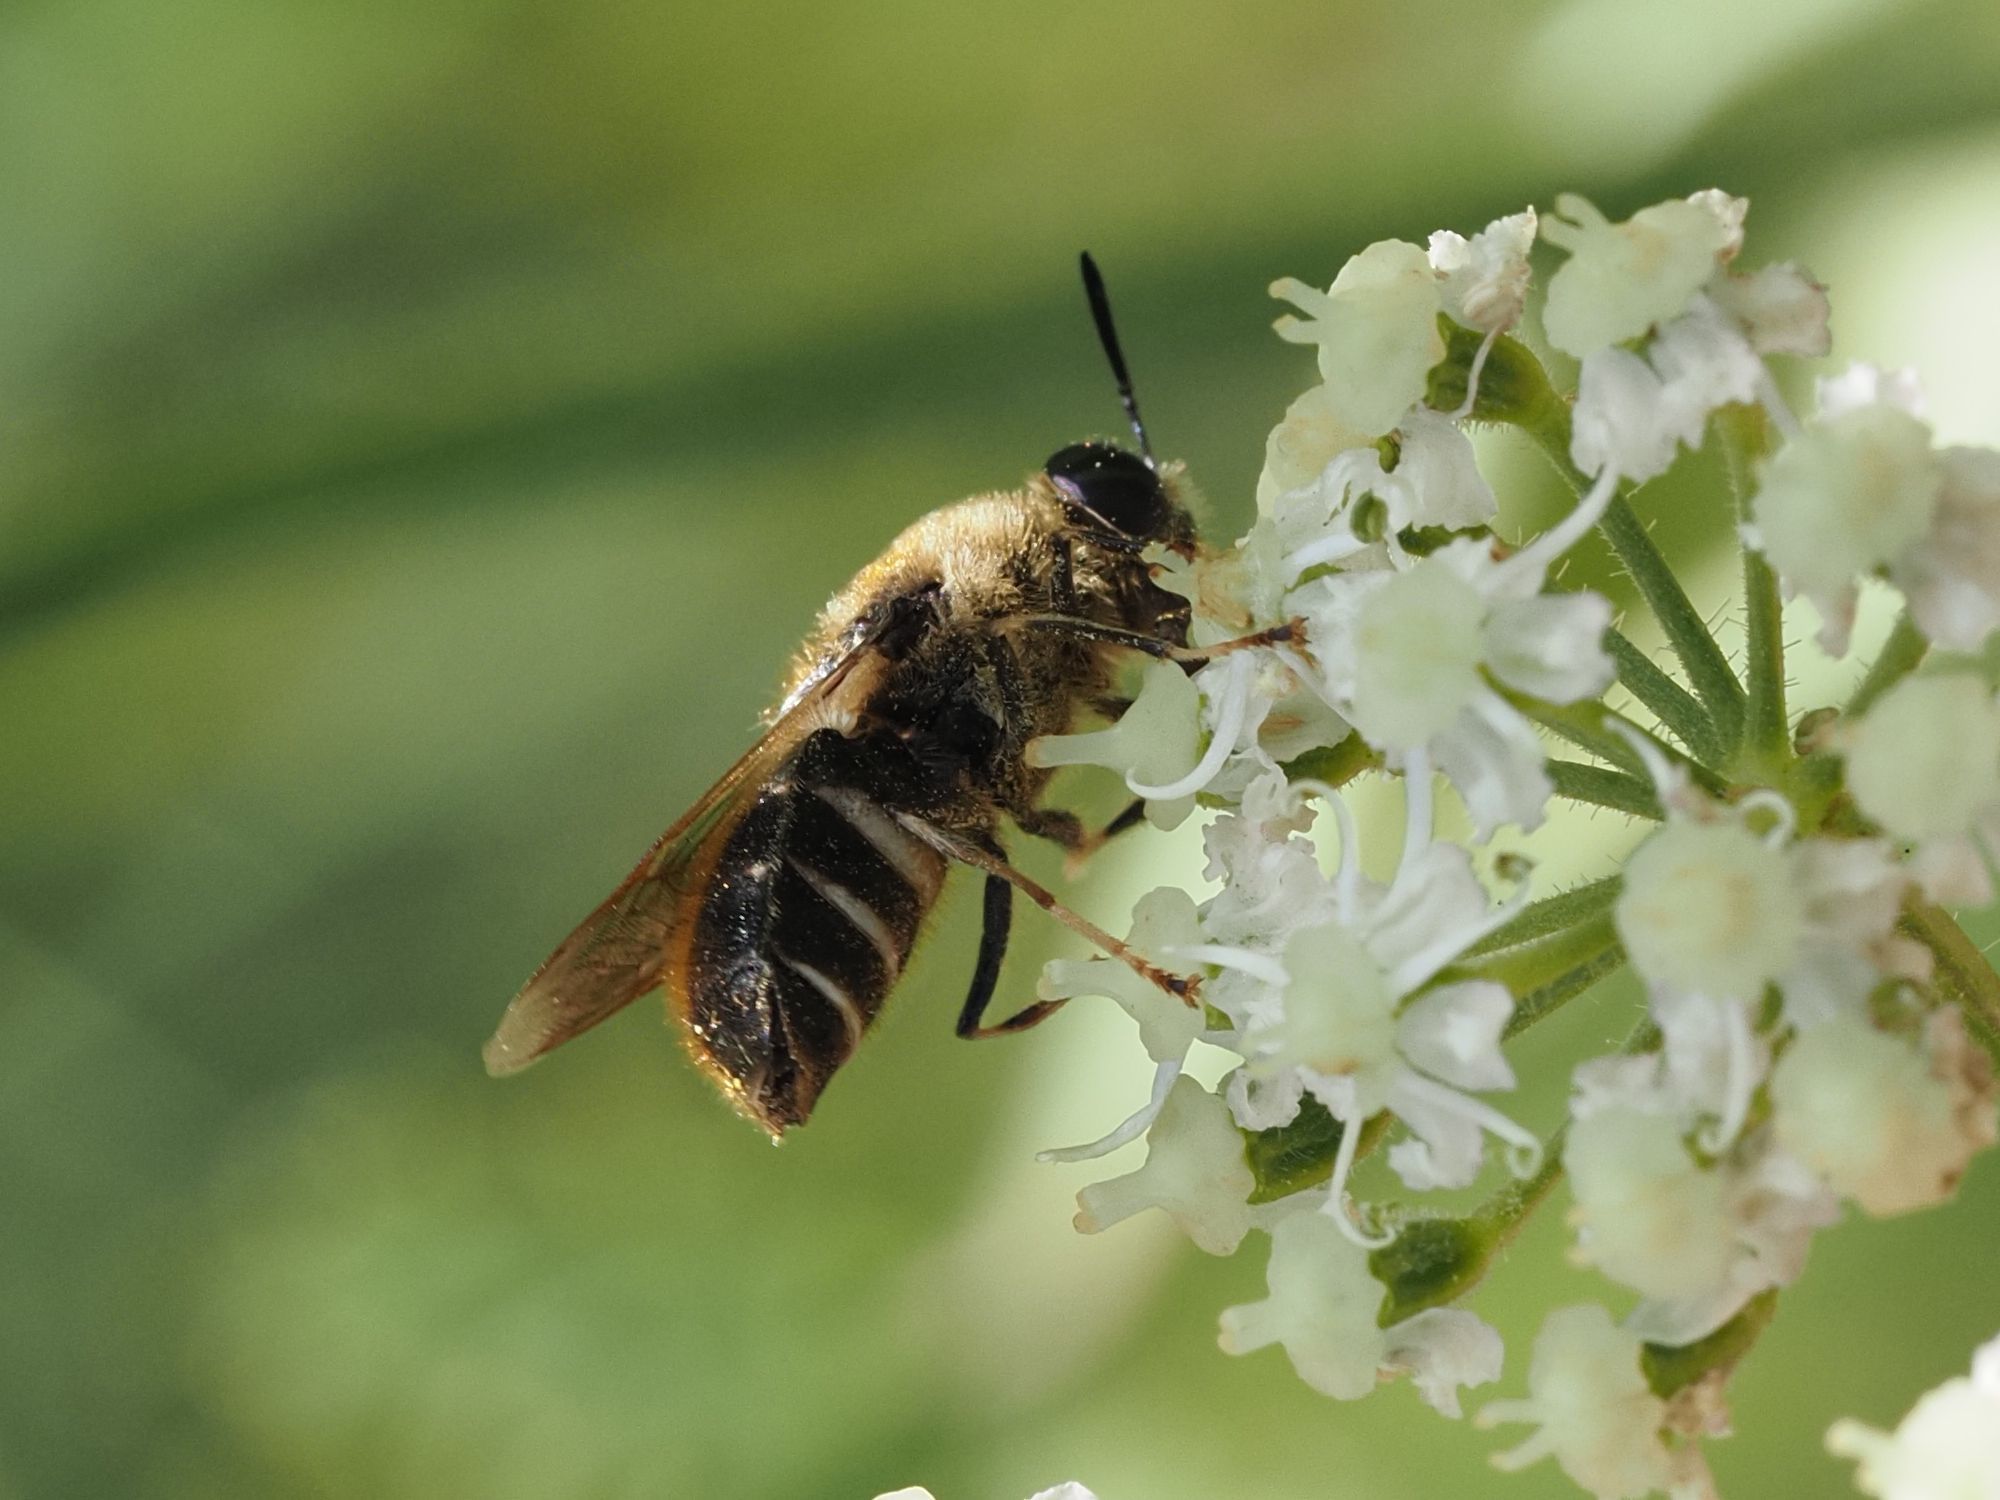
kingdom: Animalia
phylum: Arthropoda
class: Insecta
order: Diptera
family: Stratiomyidae
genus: Stratiomys
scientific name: Stratiomys longicornis
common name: Long-horned general
